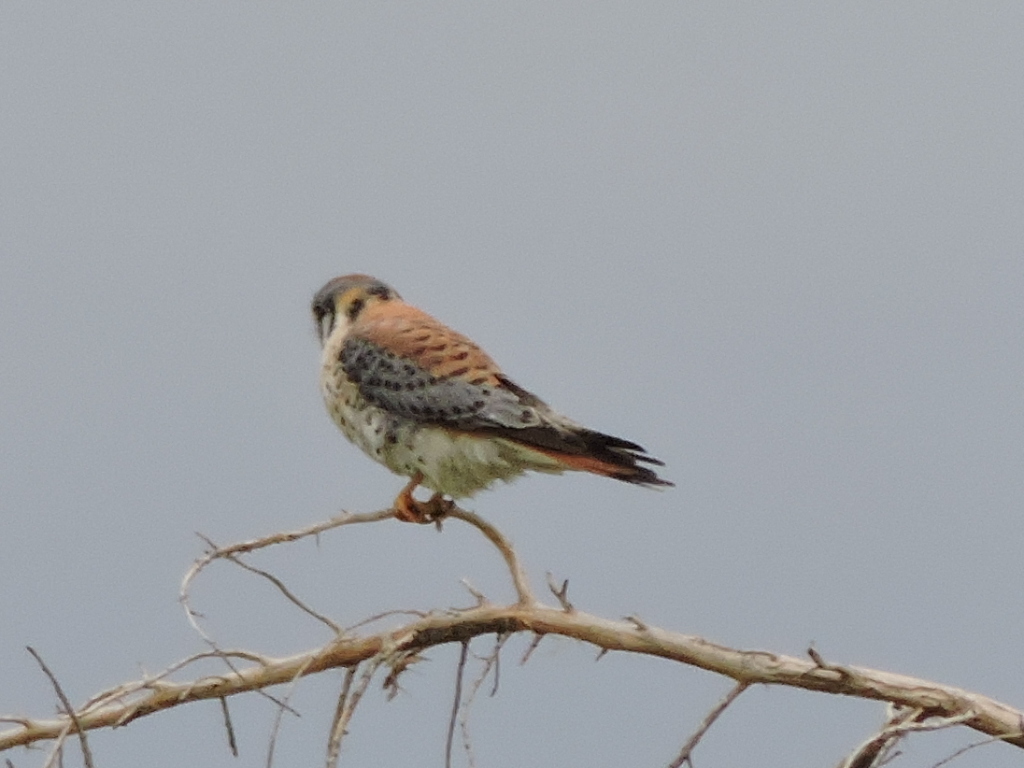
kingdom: Animalia
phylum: Chordata
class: Aves
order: Falconiformes
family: Falconidae
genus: Falco
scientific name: Falco sparverius
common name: American kestrel
